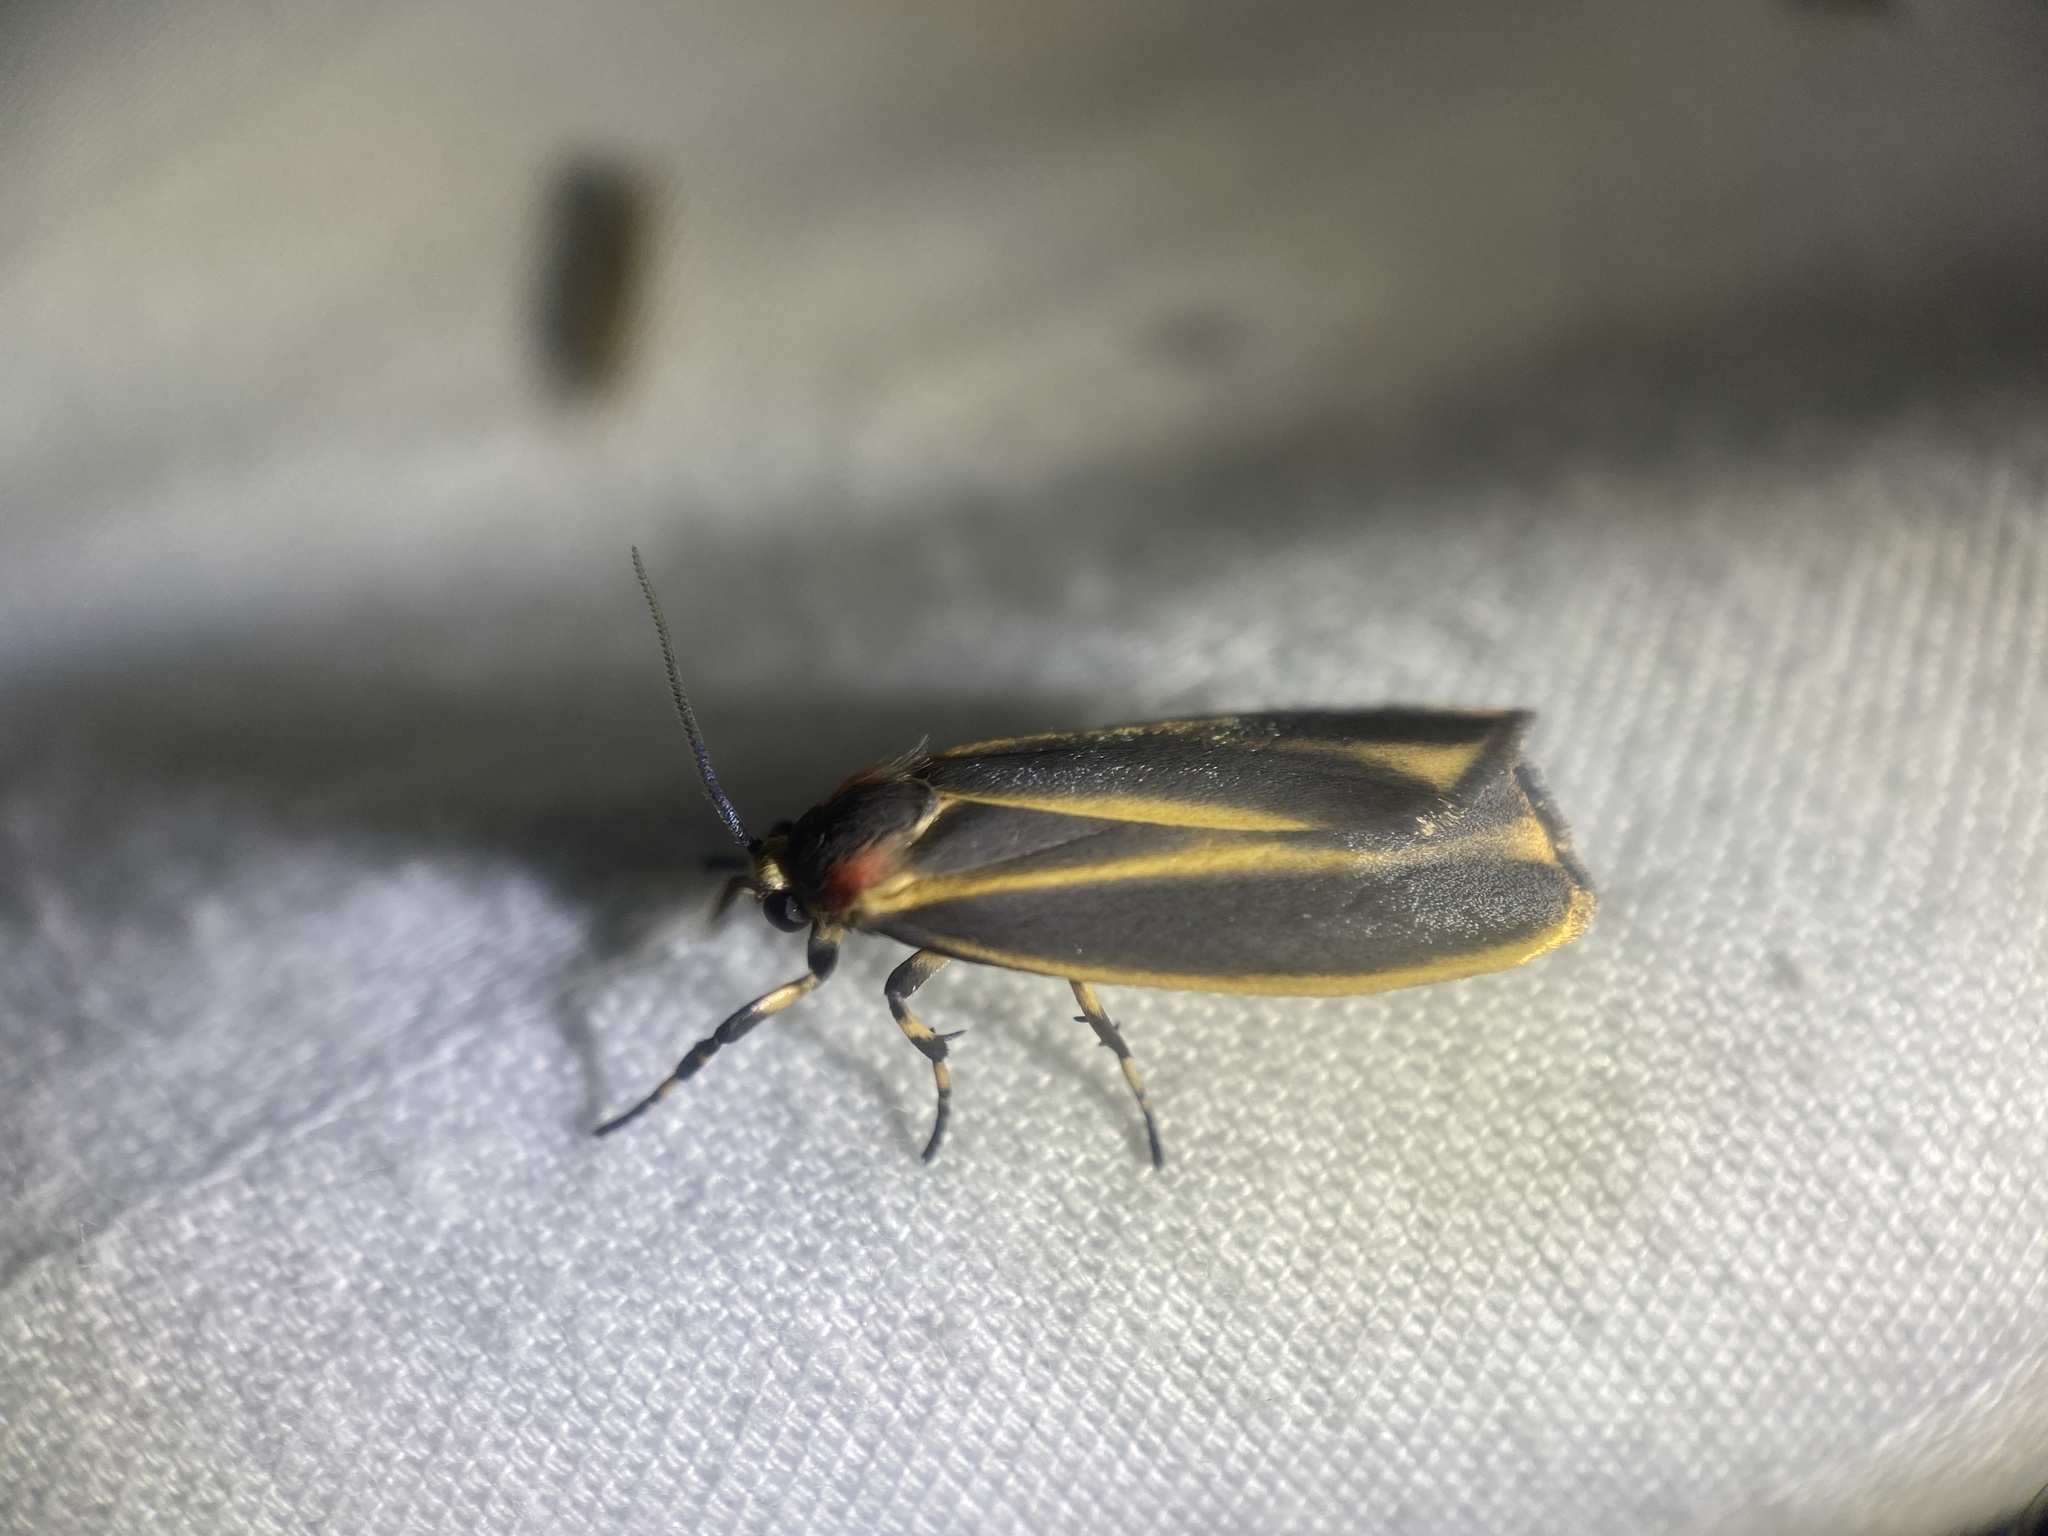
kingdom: Animalia
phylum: Arthropoda
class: Insecta
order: Lepidoptera
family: Erebidae
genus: Hypoprepia
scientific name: Hypoprepia fucosa
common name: Painted lichen moth
